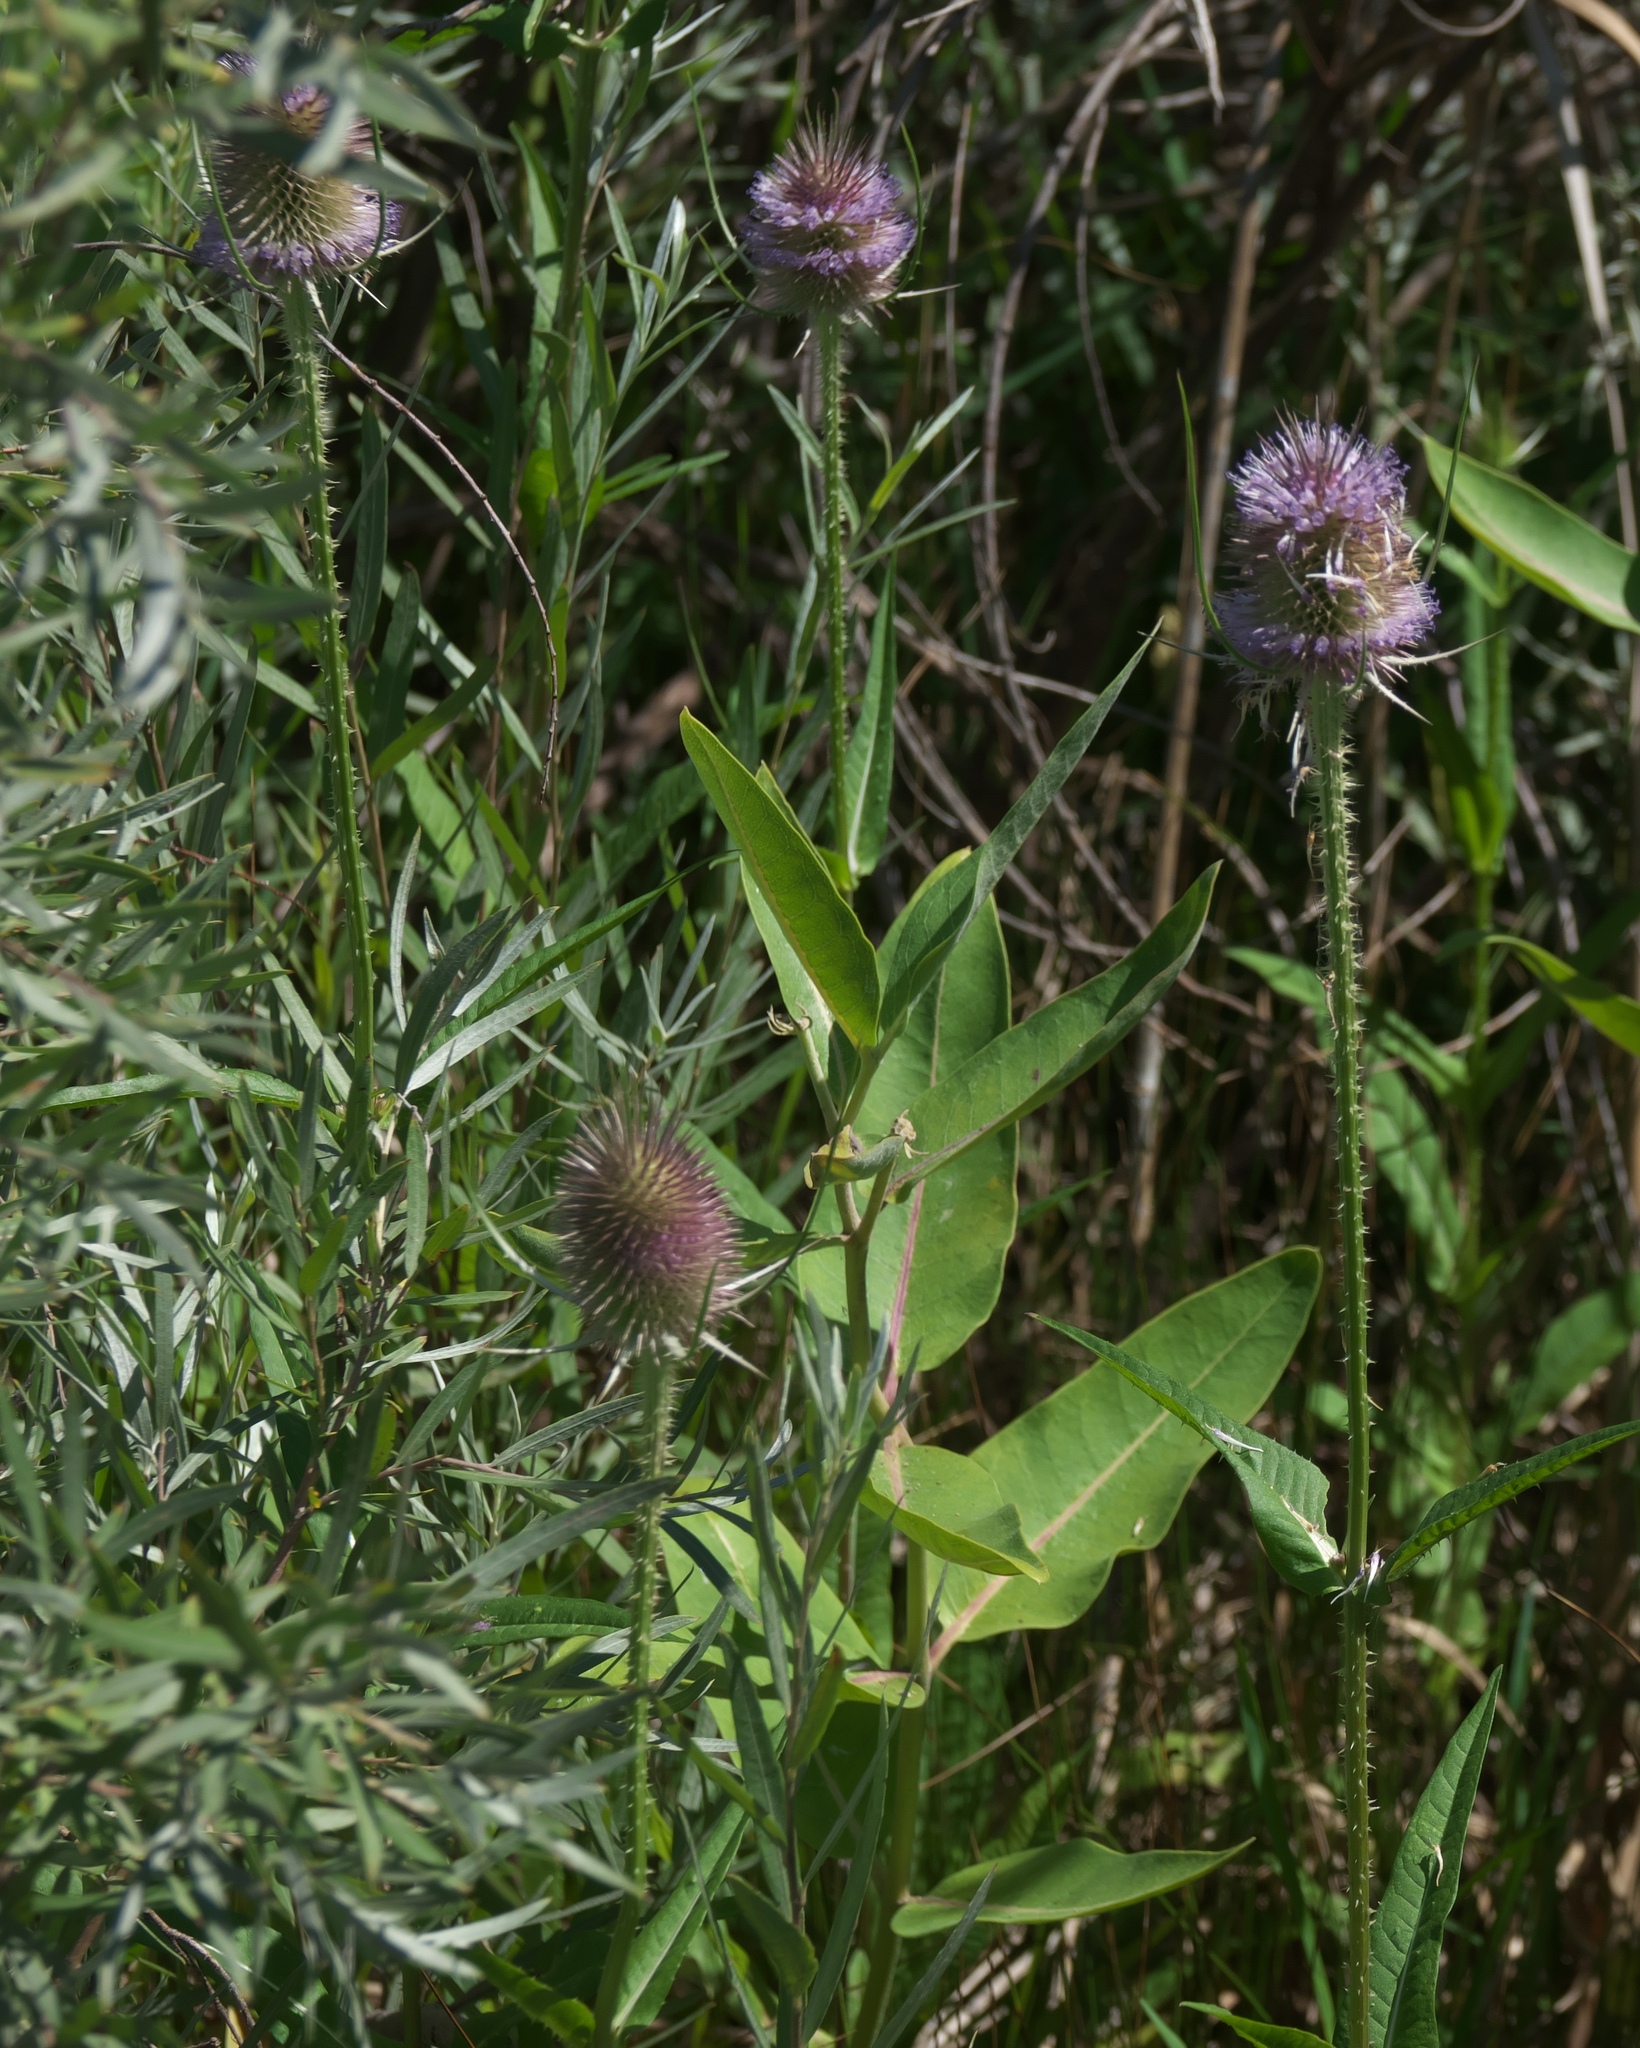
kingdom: Plantae
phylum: Tracheophyta
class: Magnoliopsida
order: Dipsacales
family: Caprifoliaceae
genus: Dipsacus
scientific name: Dipsacus fullonum
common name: Teasel
